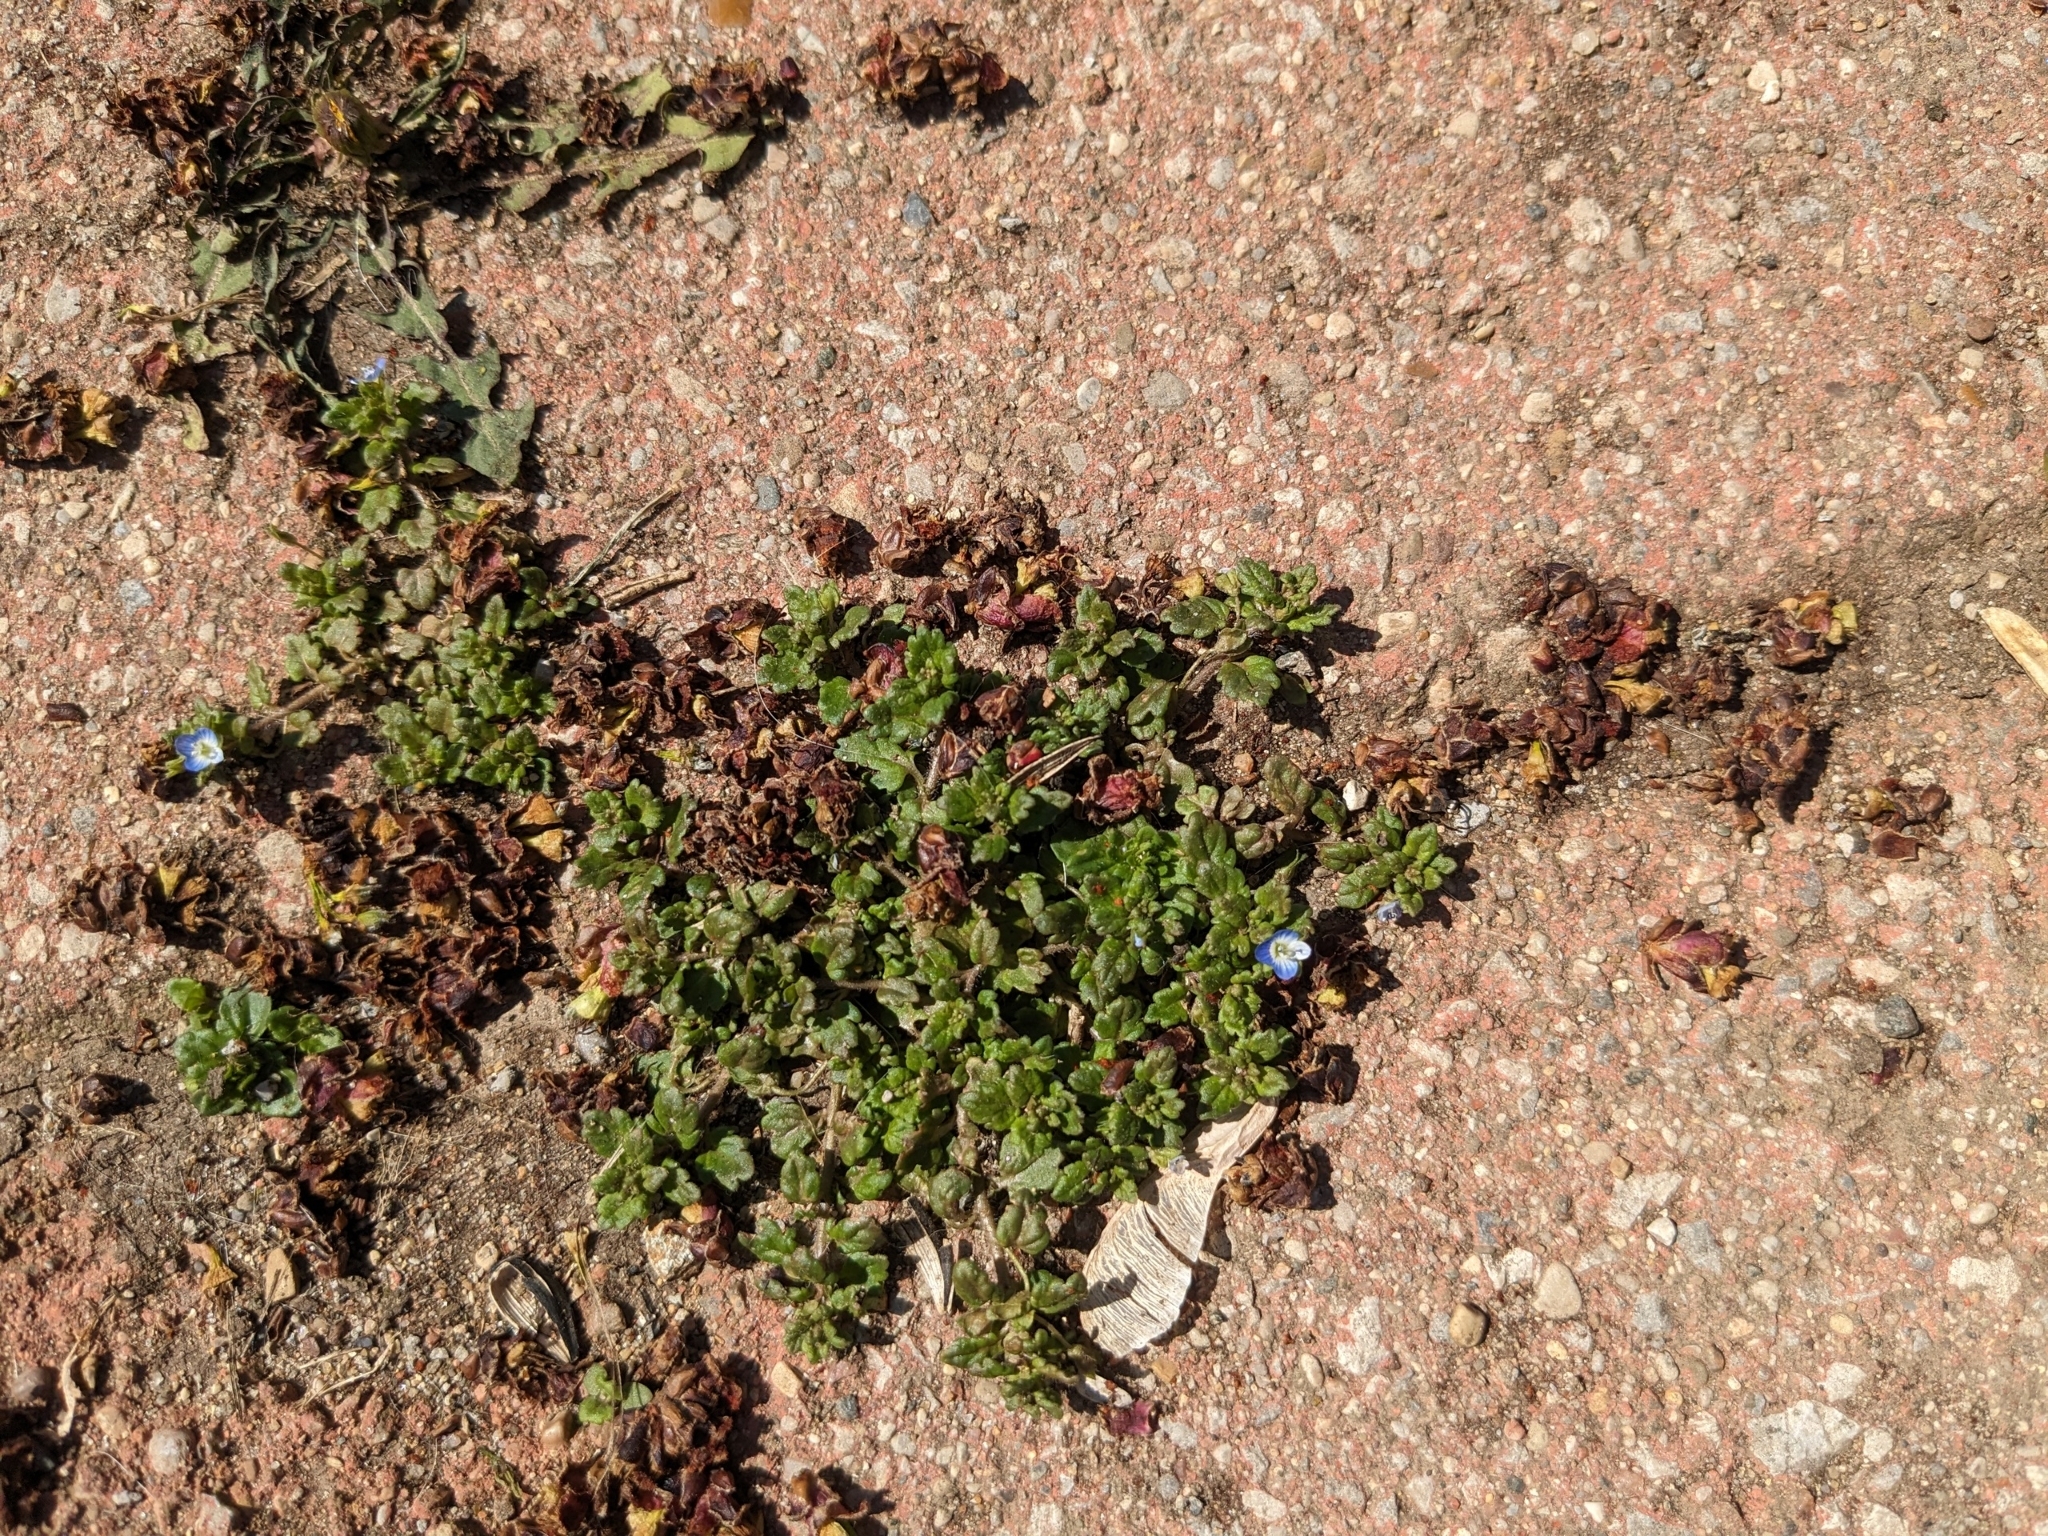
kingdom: Plantae
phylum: Tracheophyta
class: Magnoliopsida
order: Lamiales
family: Plantaginaceae
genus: Veronica
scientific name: Veronica polita
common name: Grey field-speedwell
